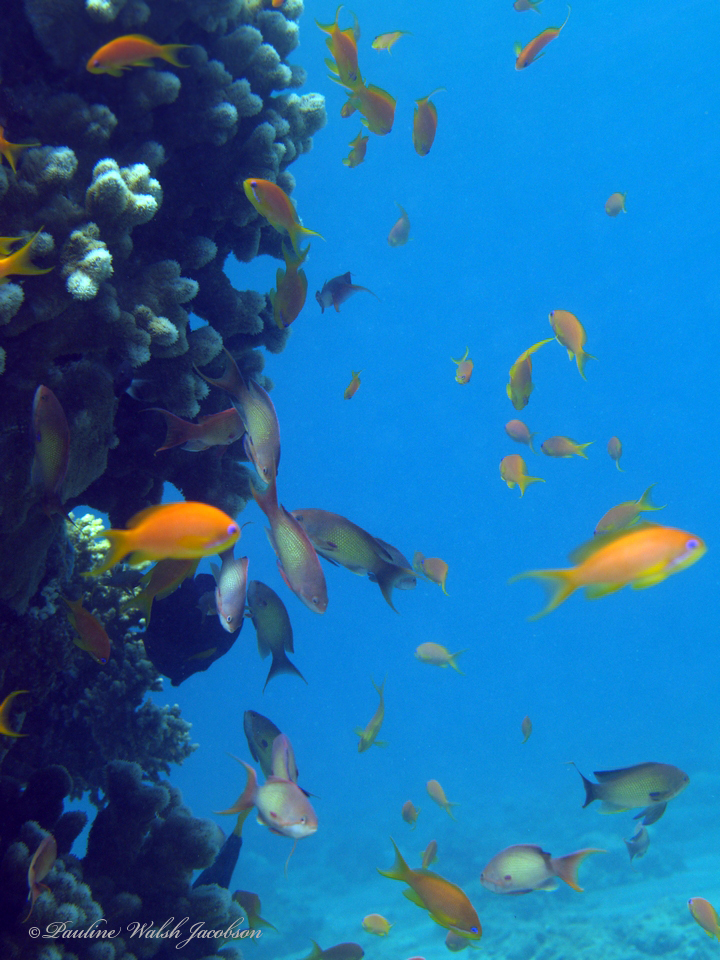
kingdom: Animalia
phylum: Chordata
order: Perciformes
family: Serranidae
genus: Pseudanthias
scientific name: Pseudanthias squamipinnis
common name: Scalefin anthias
